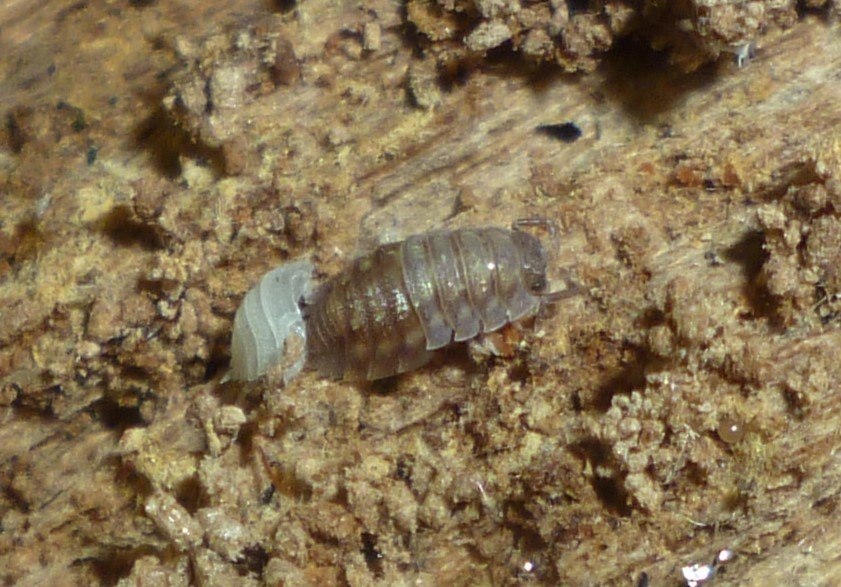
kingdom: Animalia
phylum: Arthropoda
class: Malacostraca
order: Isopoda
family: Oniscidae
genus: Oniscus
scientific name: Oniscus asellus
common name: Common shiny woodlouse
